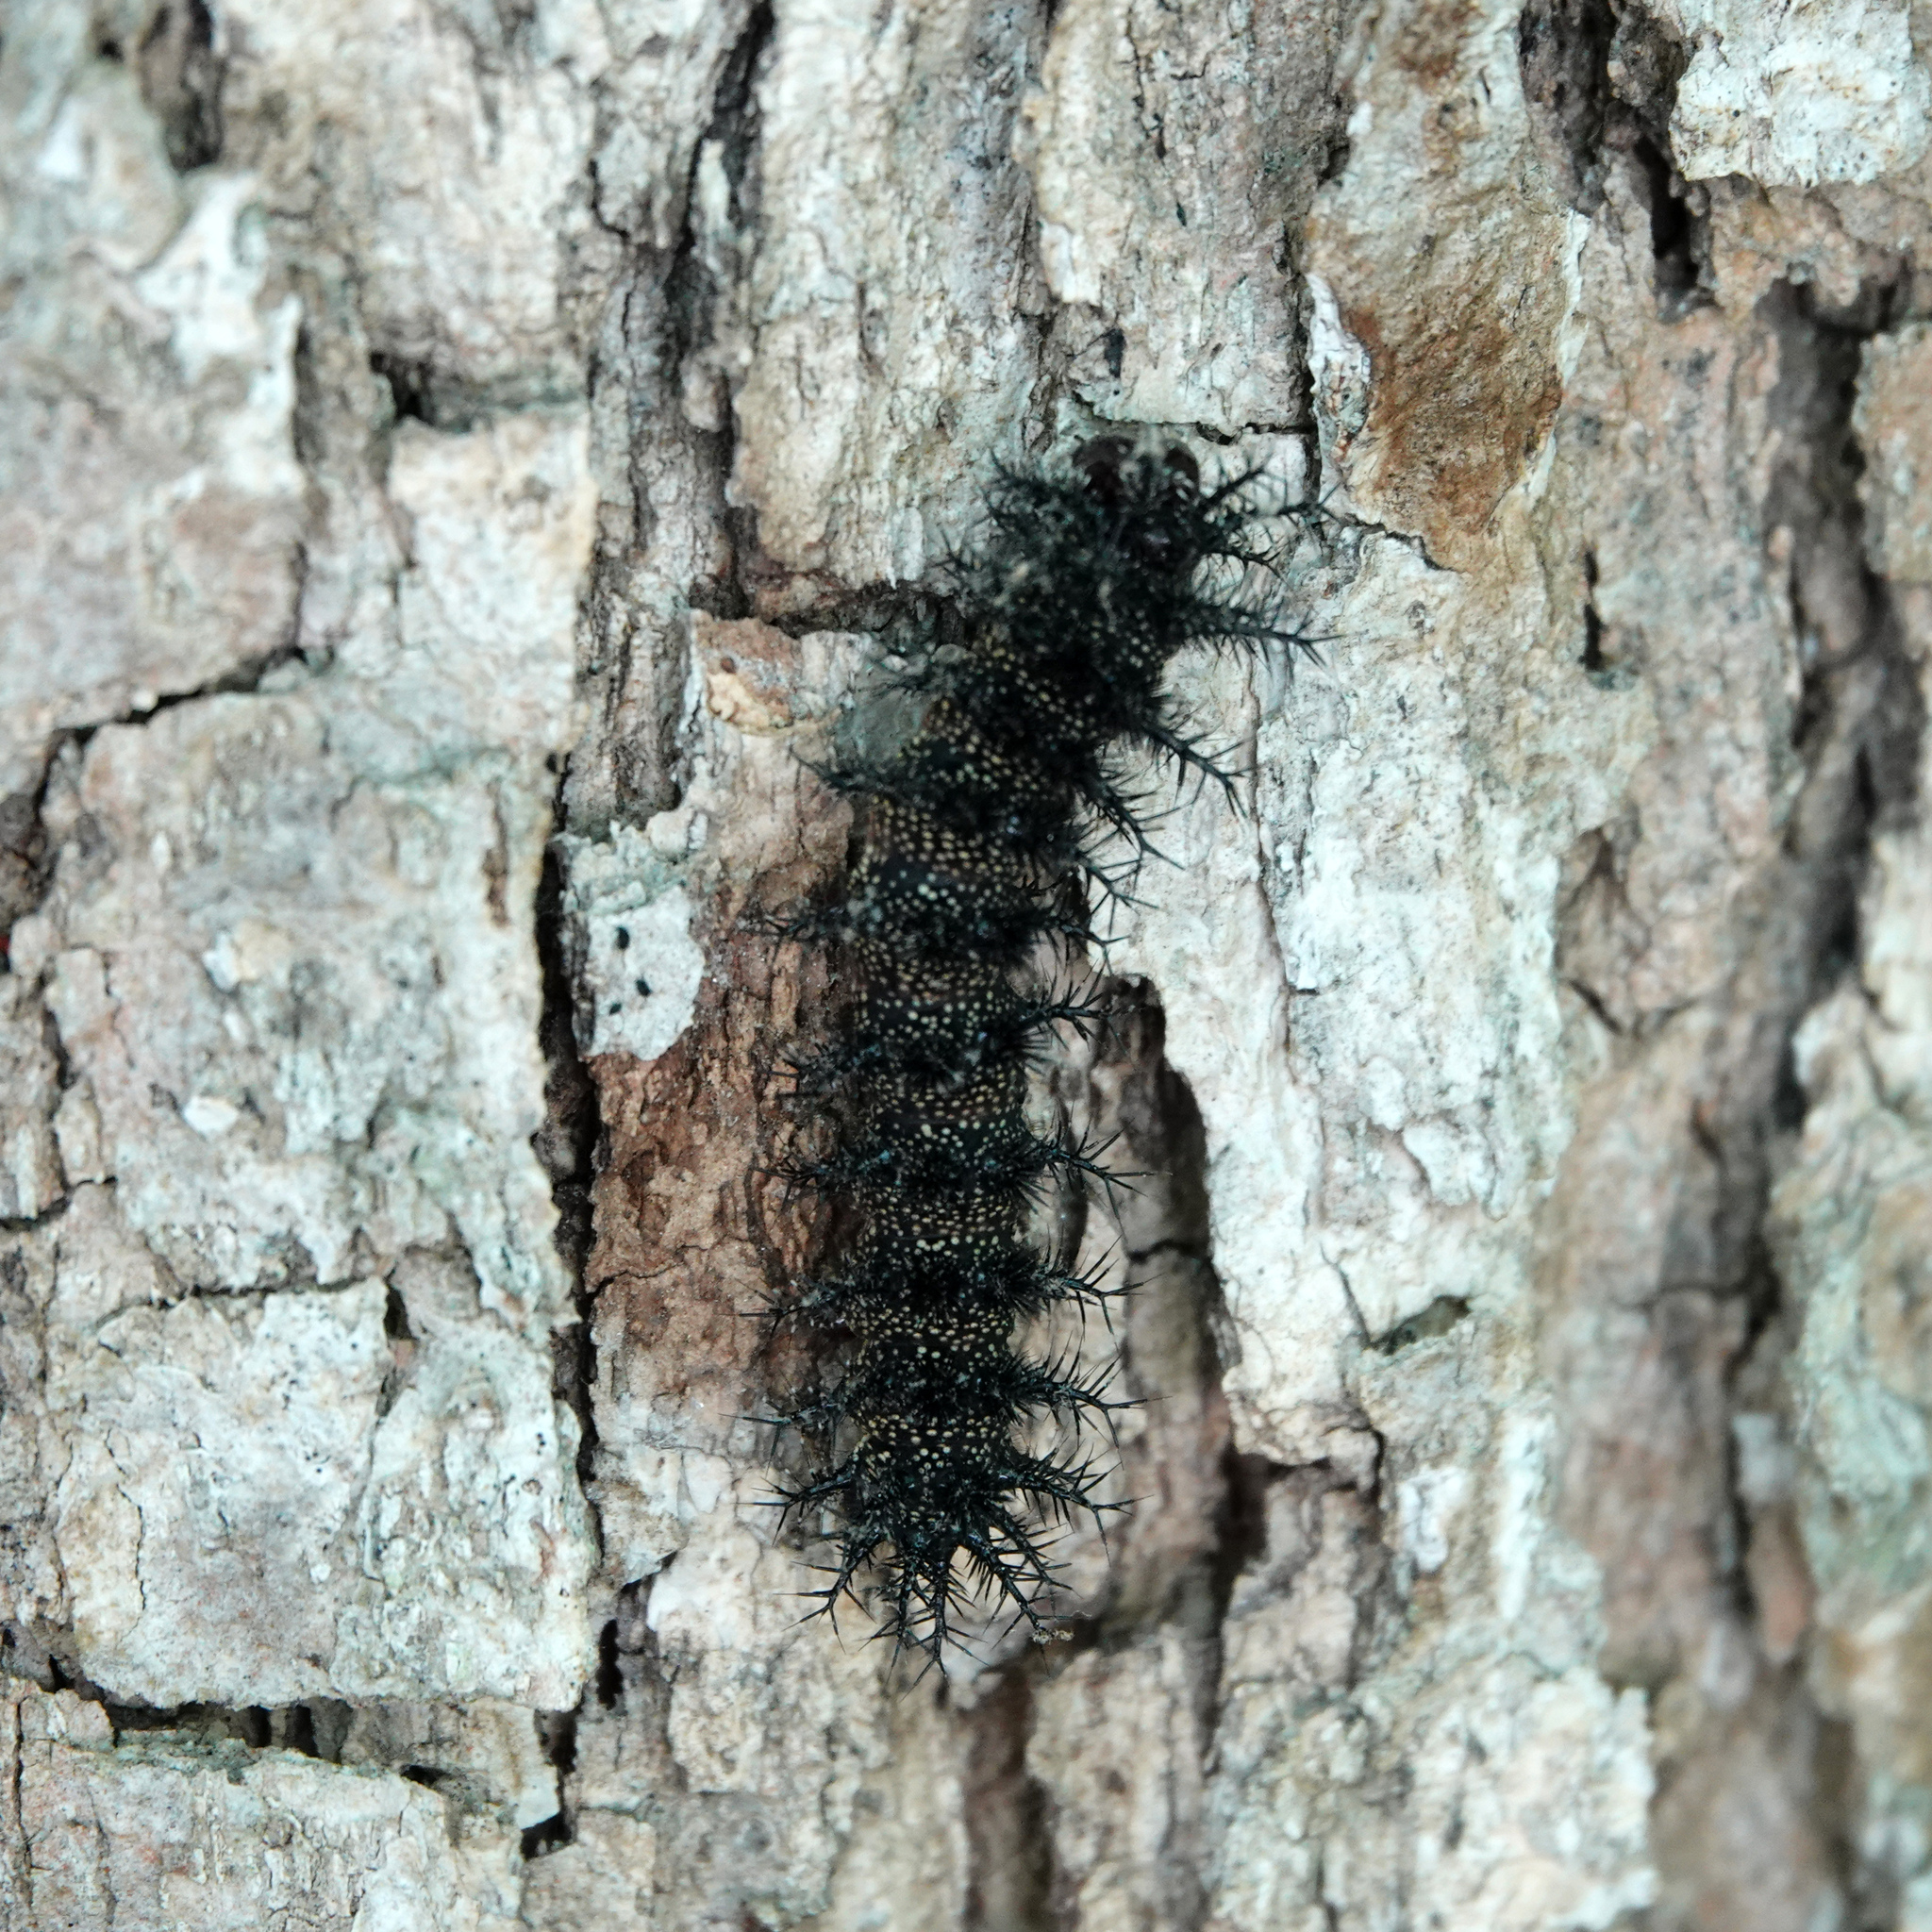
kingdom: Animalia
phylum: Arthropoda
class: Insecta
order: Lepidoptera
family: Saturniidae
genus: Hemileuca
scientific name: Hemileuca maia
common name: Eastern buckmoth
